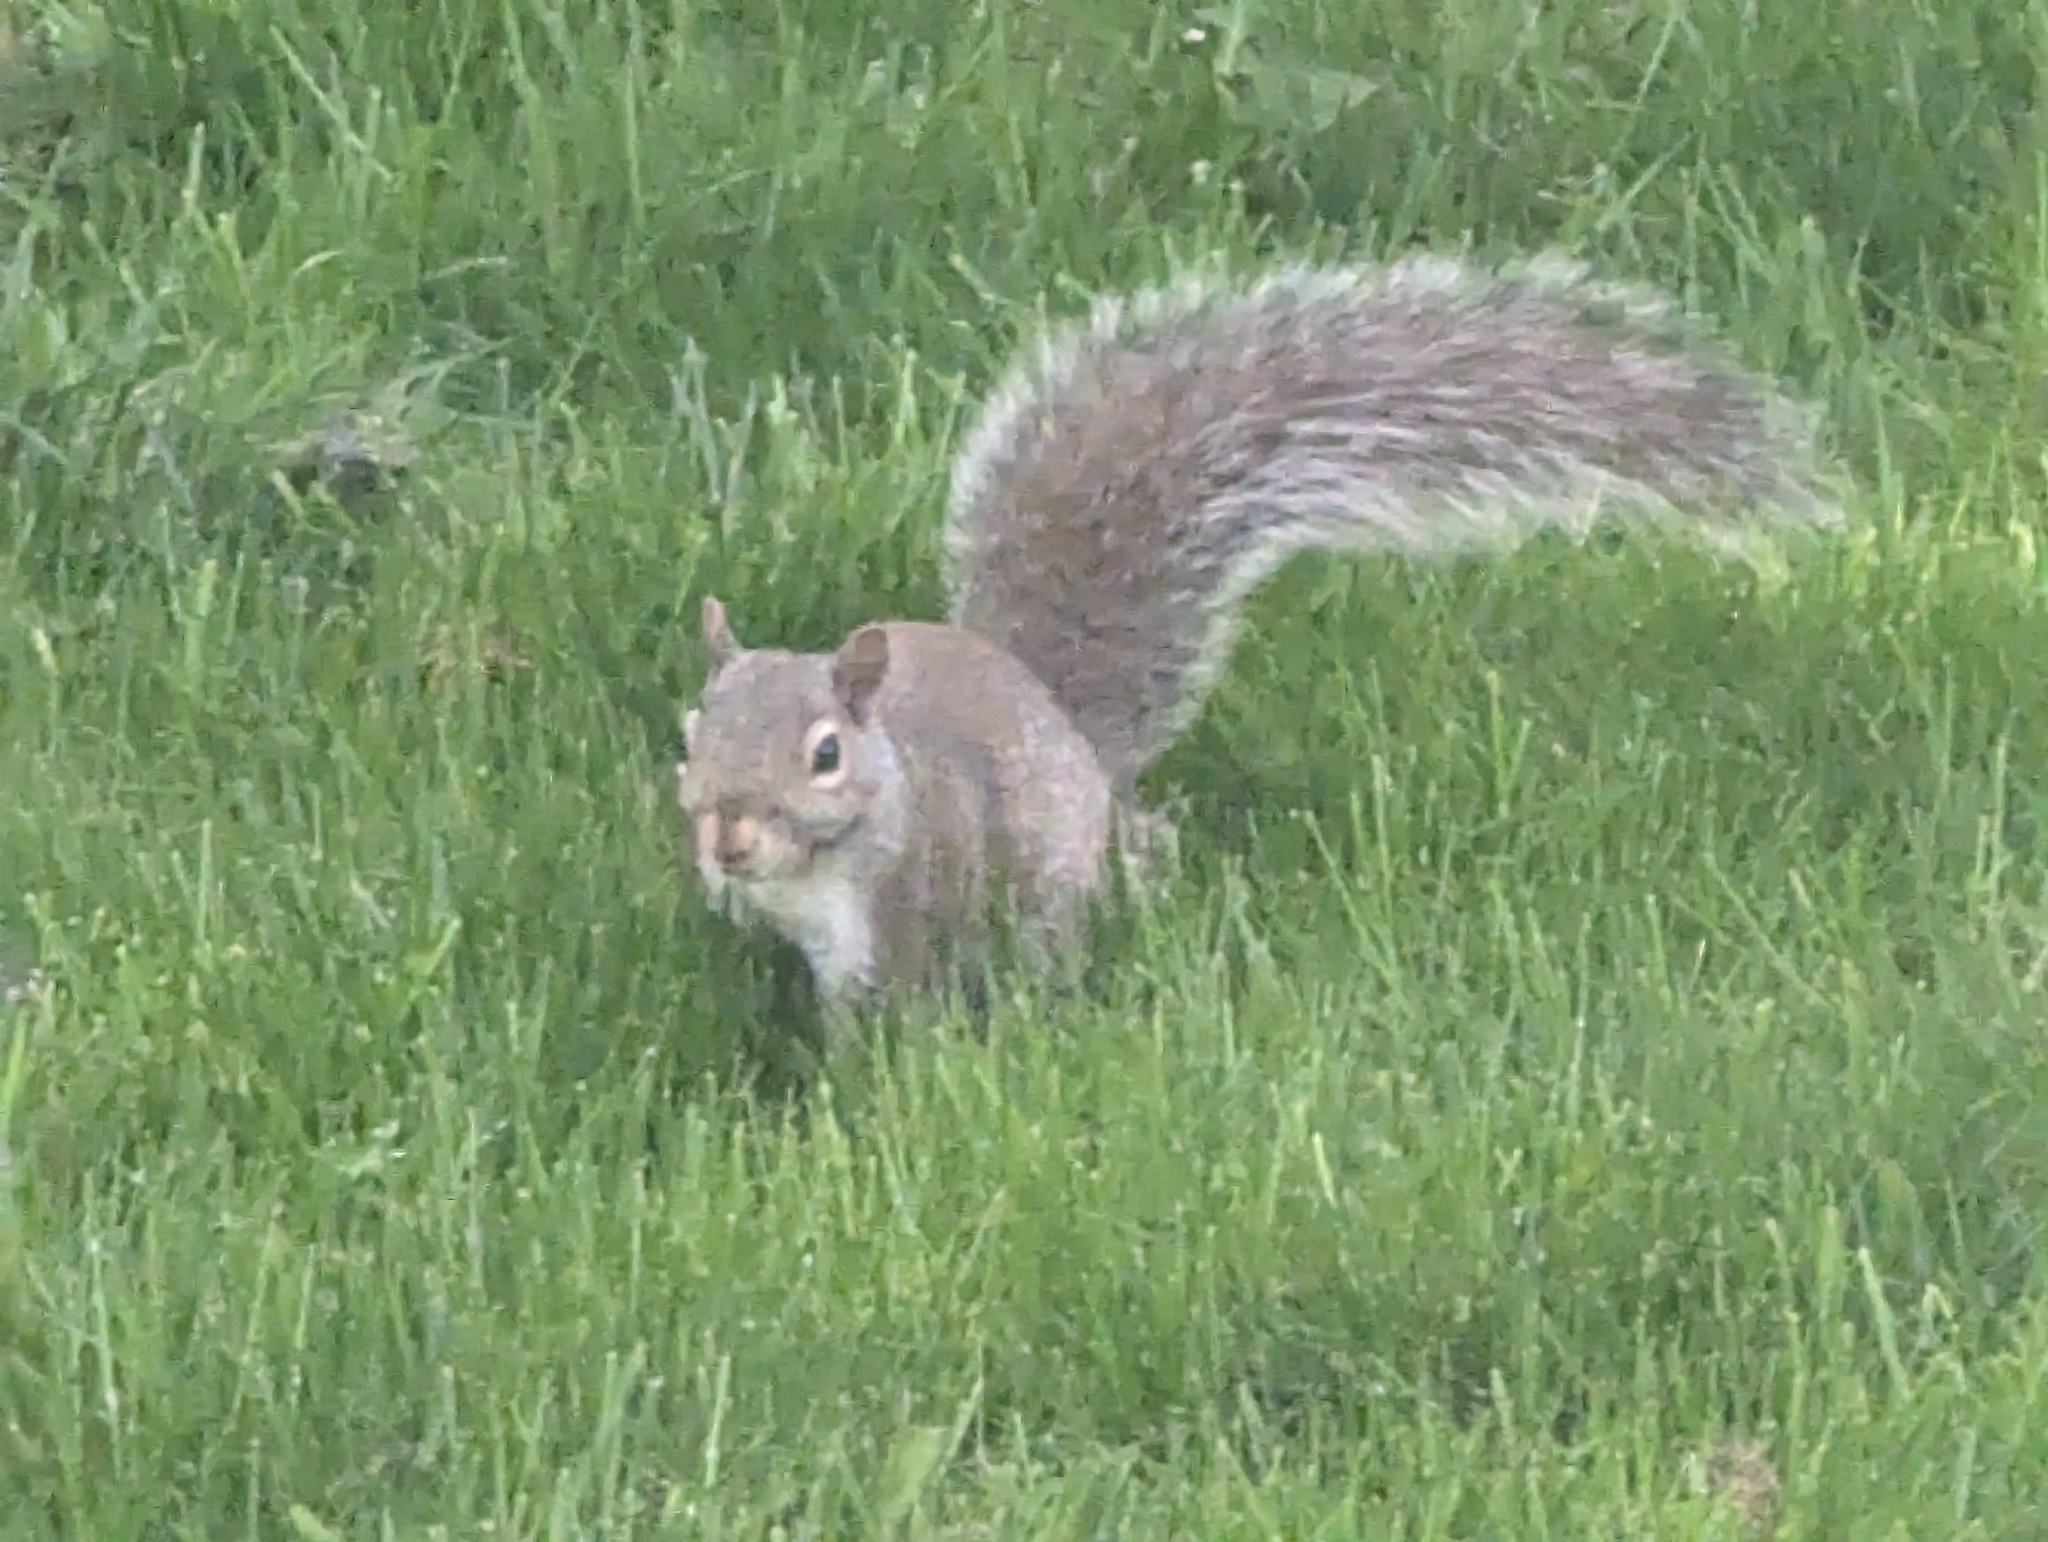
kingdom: Animalia
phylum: Chordata
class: Mammalia
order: Rodentia
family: Sciuridae
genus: Sciurus
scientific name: Sciurus carolinensis
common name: Eastern gray squirrel
